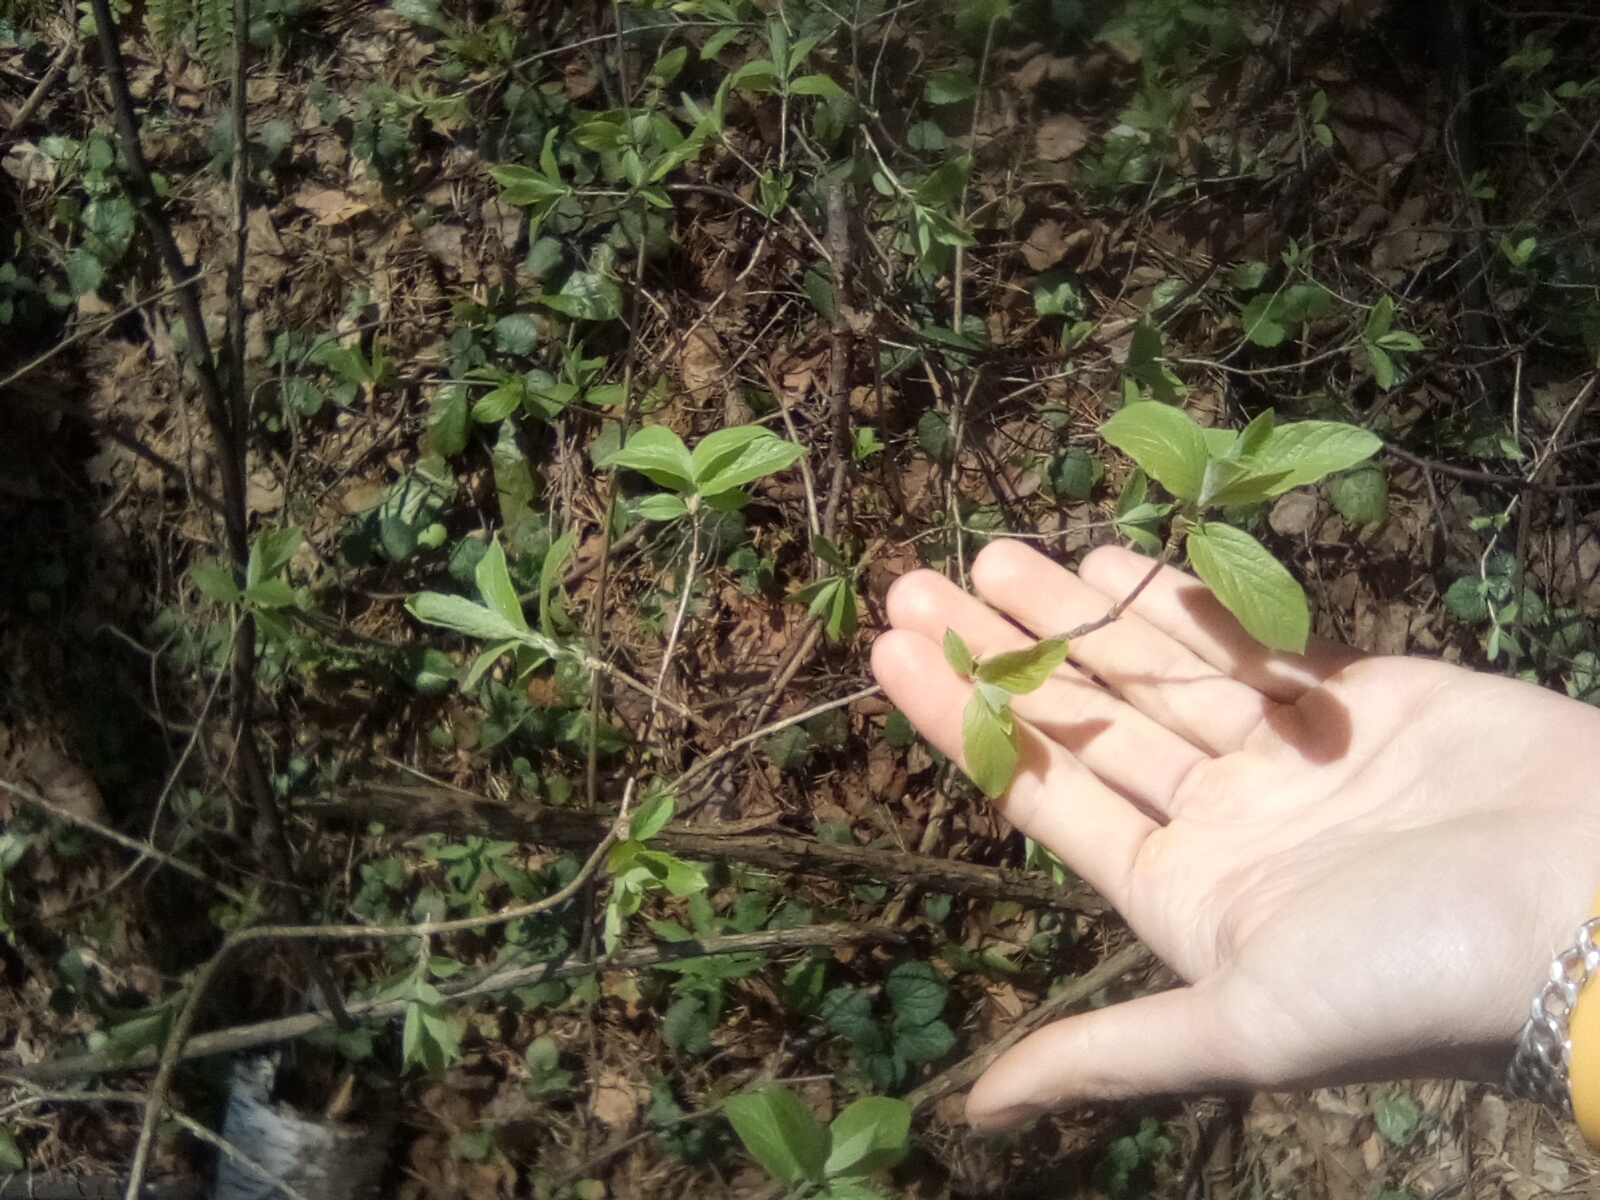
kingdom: Plantae
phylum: Tracheophyta
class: Magnoliopsida
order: Dipsacales
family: Caprifoliaceae
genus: Lonicera
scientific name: Lonicera xylosteum
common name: Fly honeysuckle
